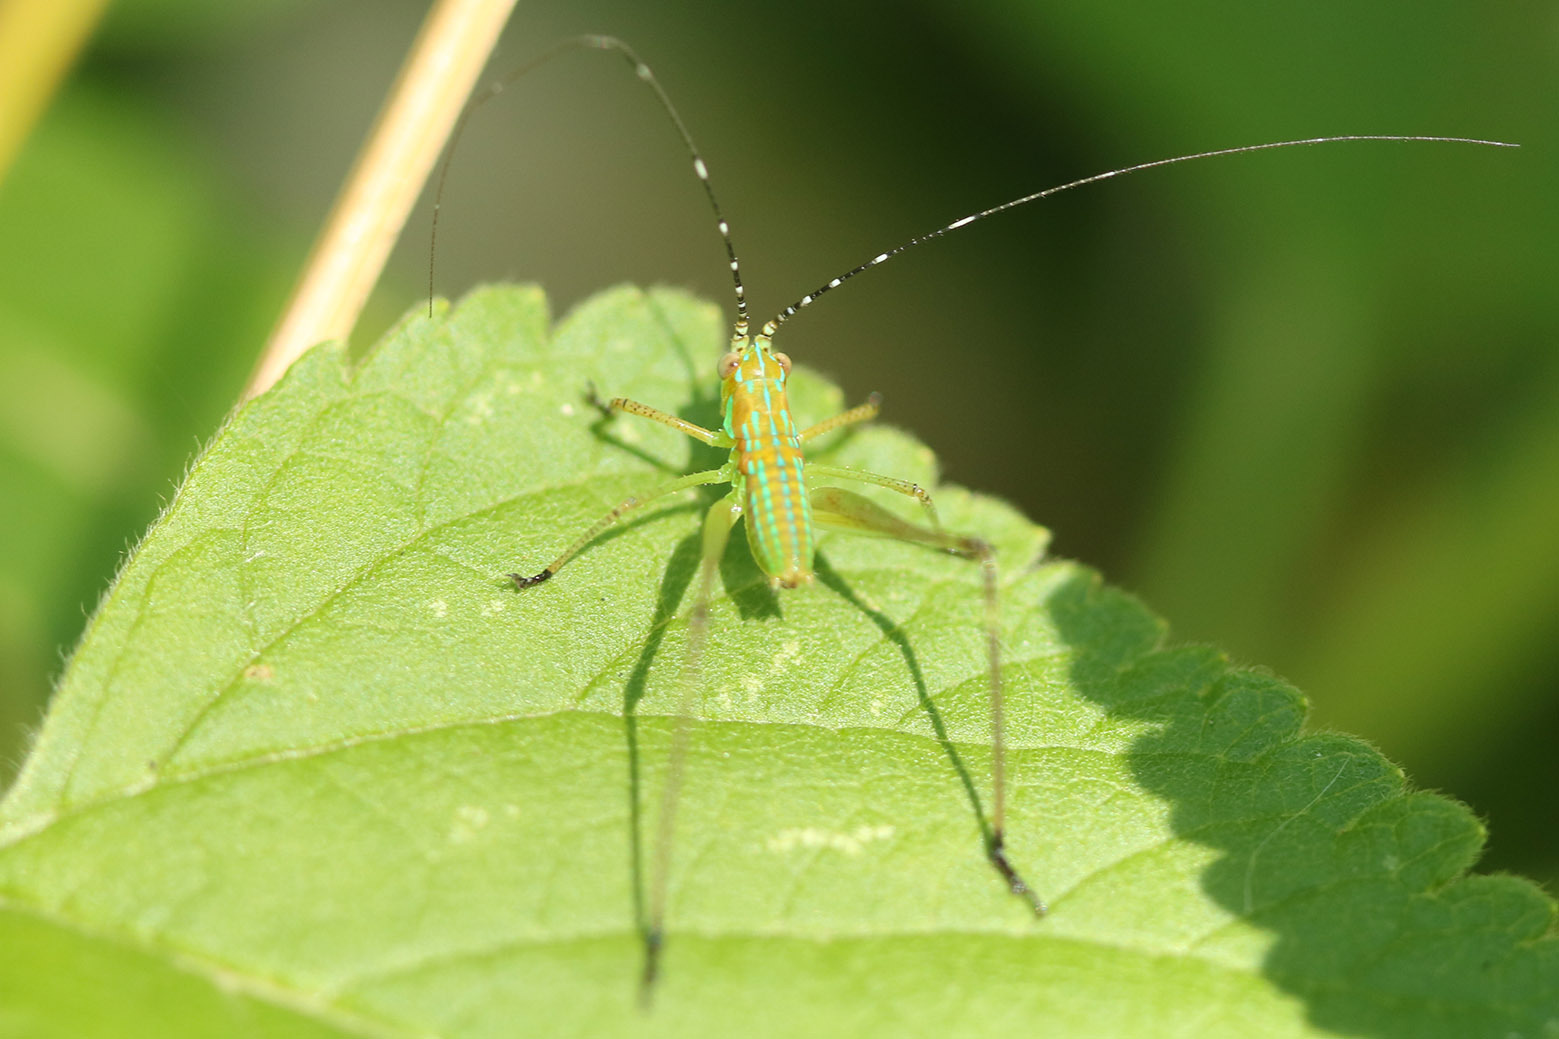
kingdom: Animalia
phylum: Arthropoda
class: Insecta
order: Orthoptera
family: Tettigoniidae
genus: Theudoria
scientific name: Theudoria melanocnemis
